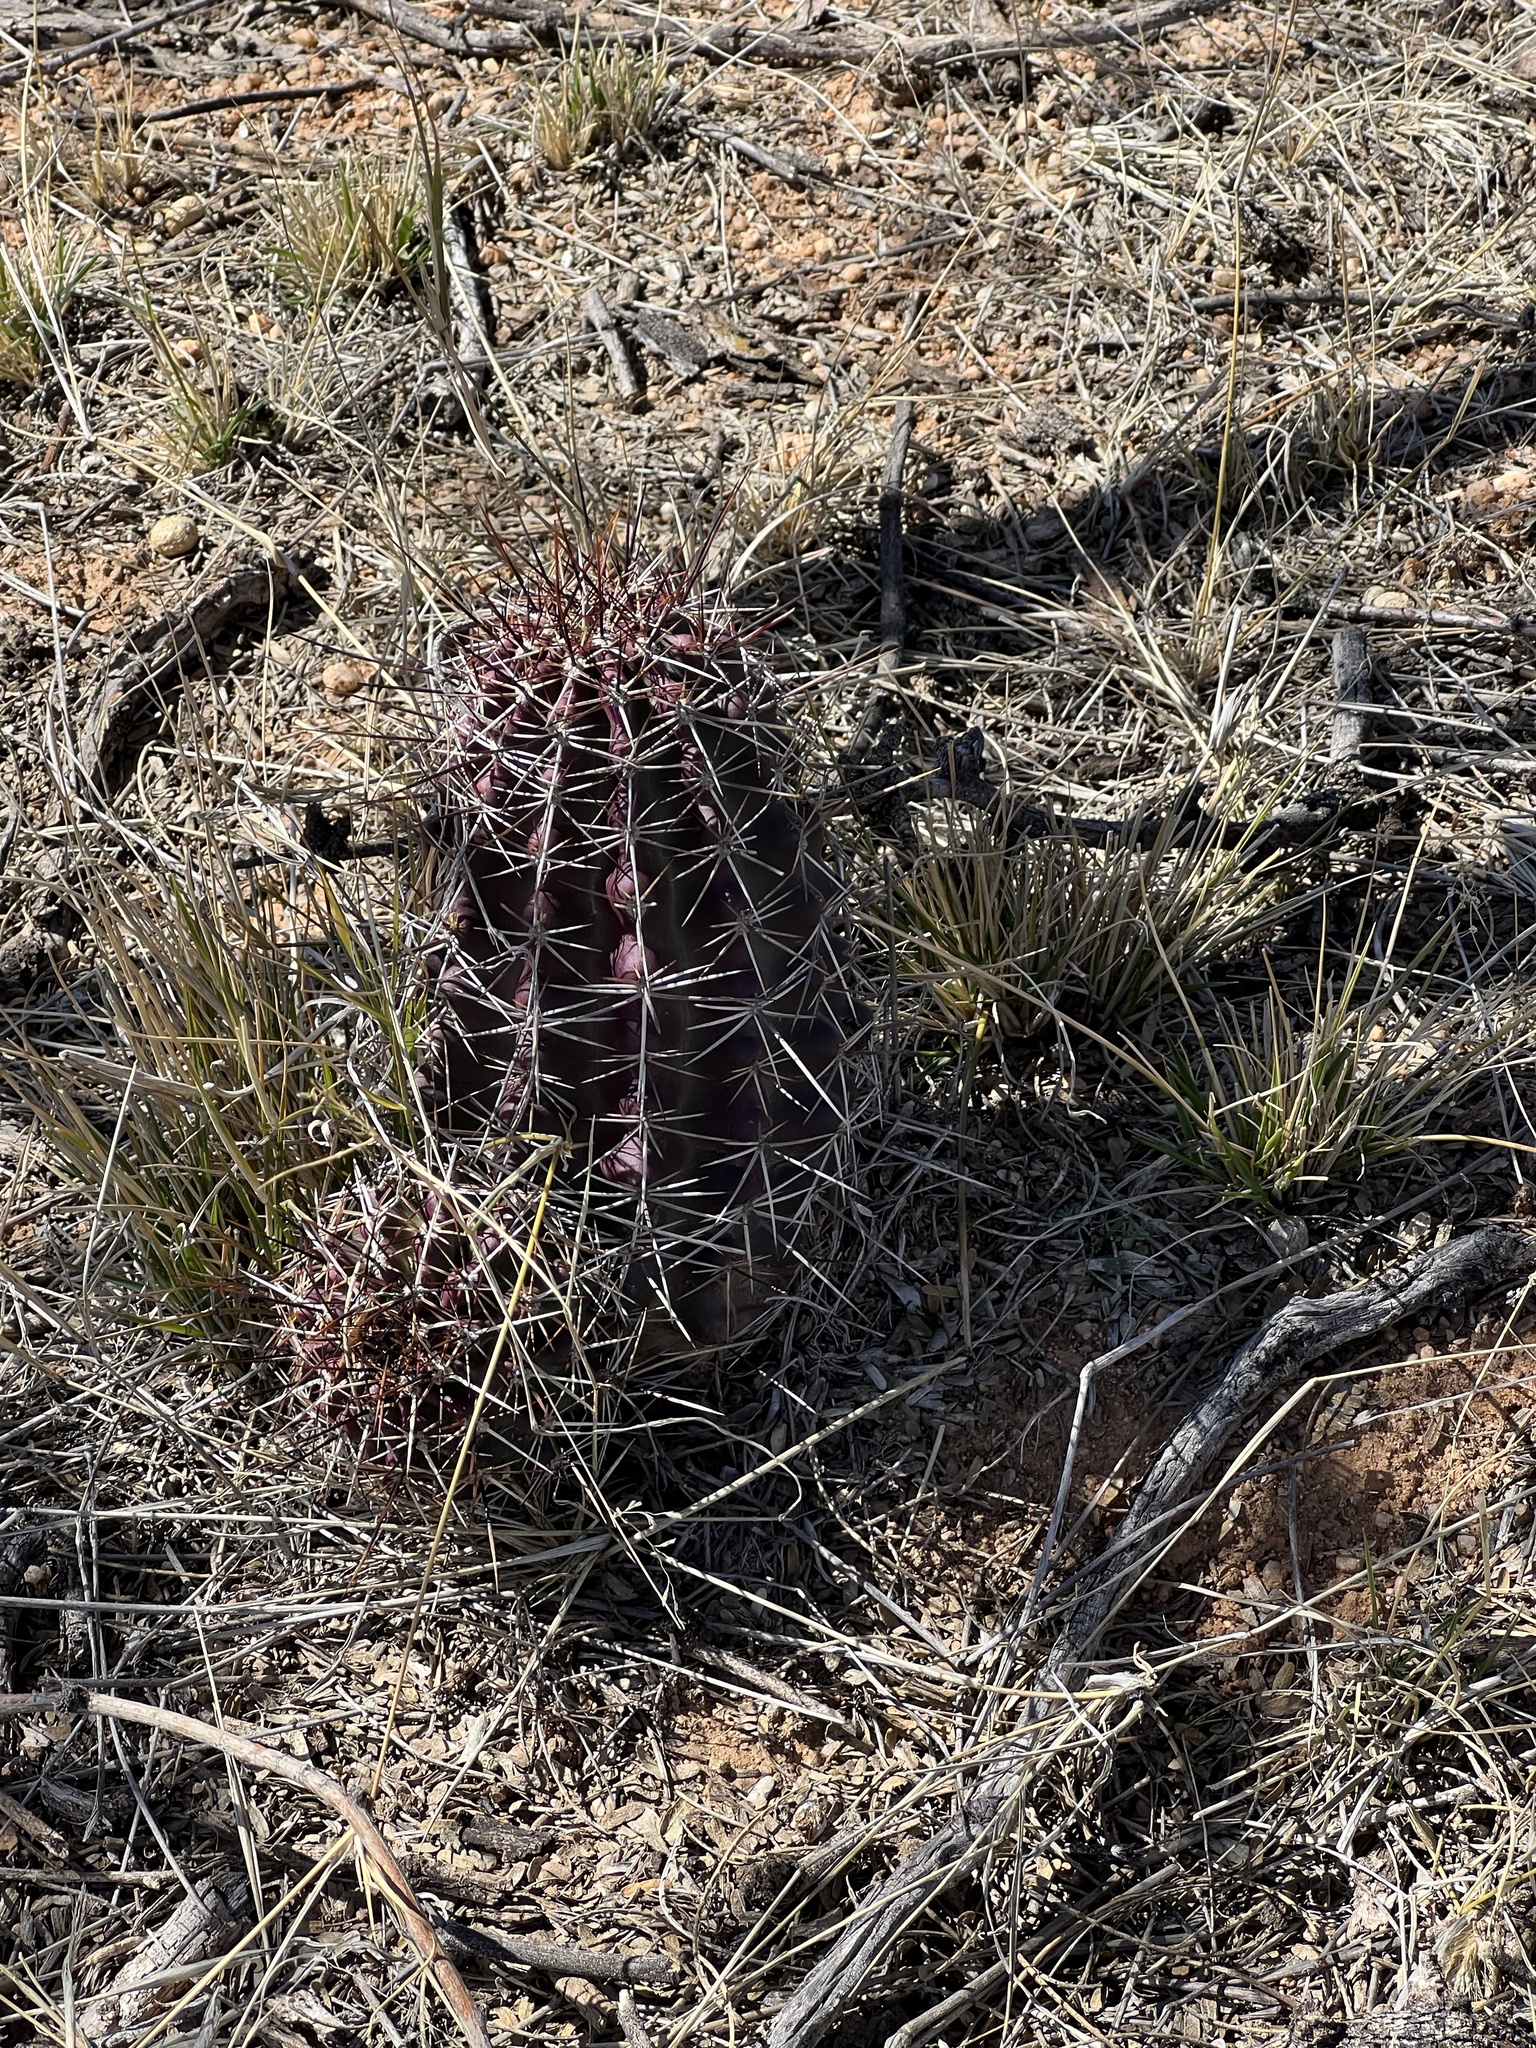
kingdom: Plantae
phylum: Tracheophyta
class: Magnoliopsida
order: Caryophyllales
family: Cactaceae
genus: Echinocereus
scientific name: Echinocereus fendleri
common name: Fendler's hedgehog cactus
